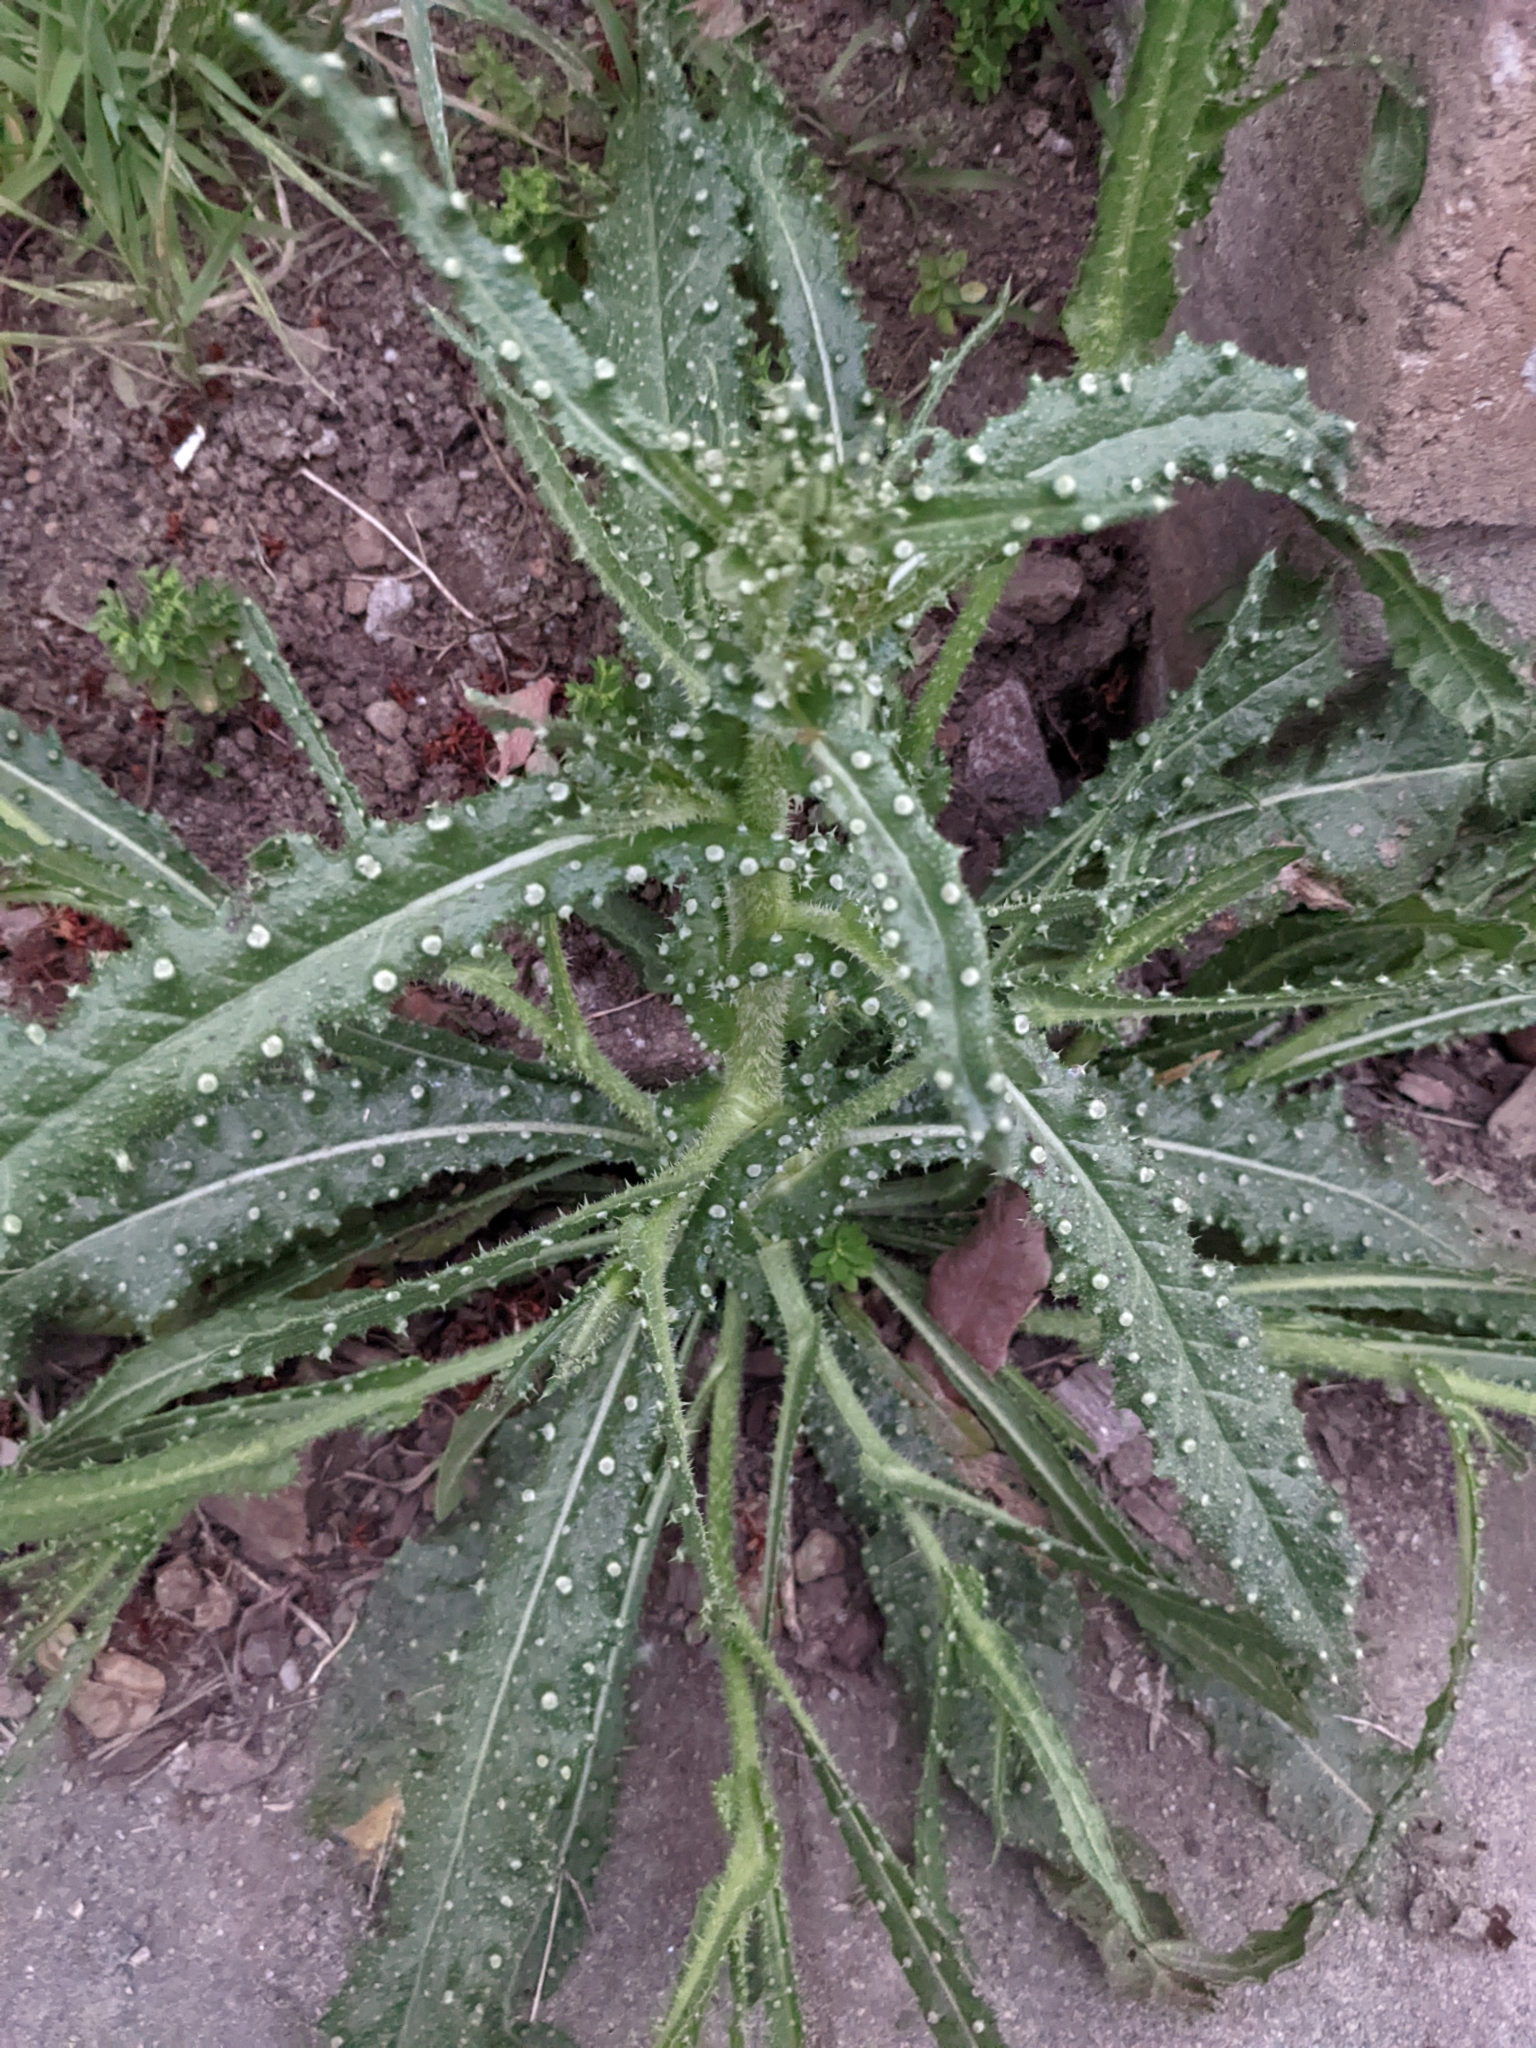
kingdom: Plantae
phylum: Tracheophyta
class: Magnoliopsida
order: Asterales
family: Asteraceae
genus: Helminthotheca
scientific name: Helminthotheca echioides
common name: Ox-tongue
